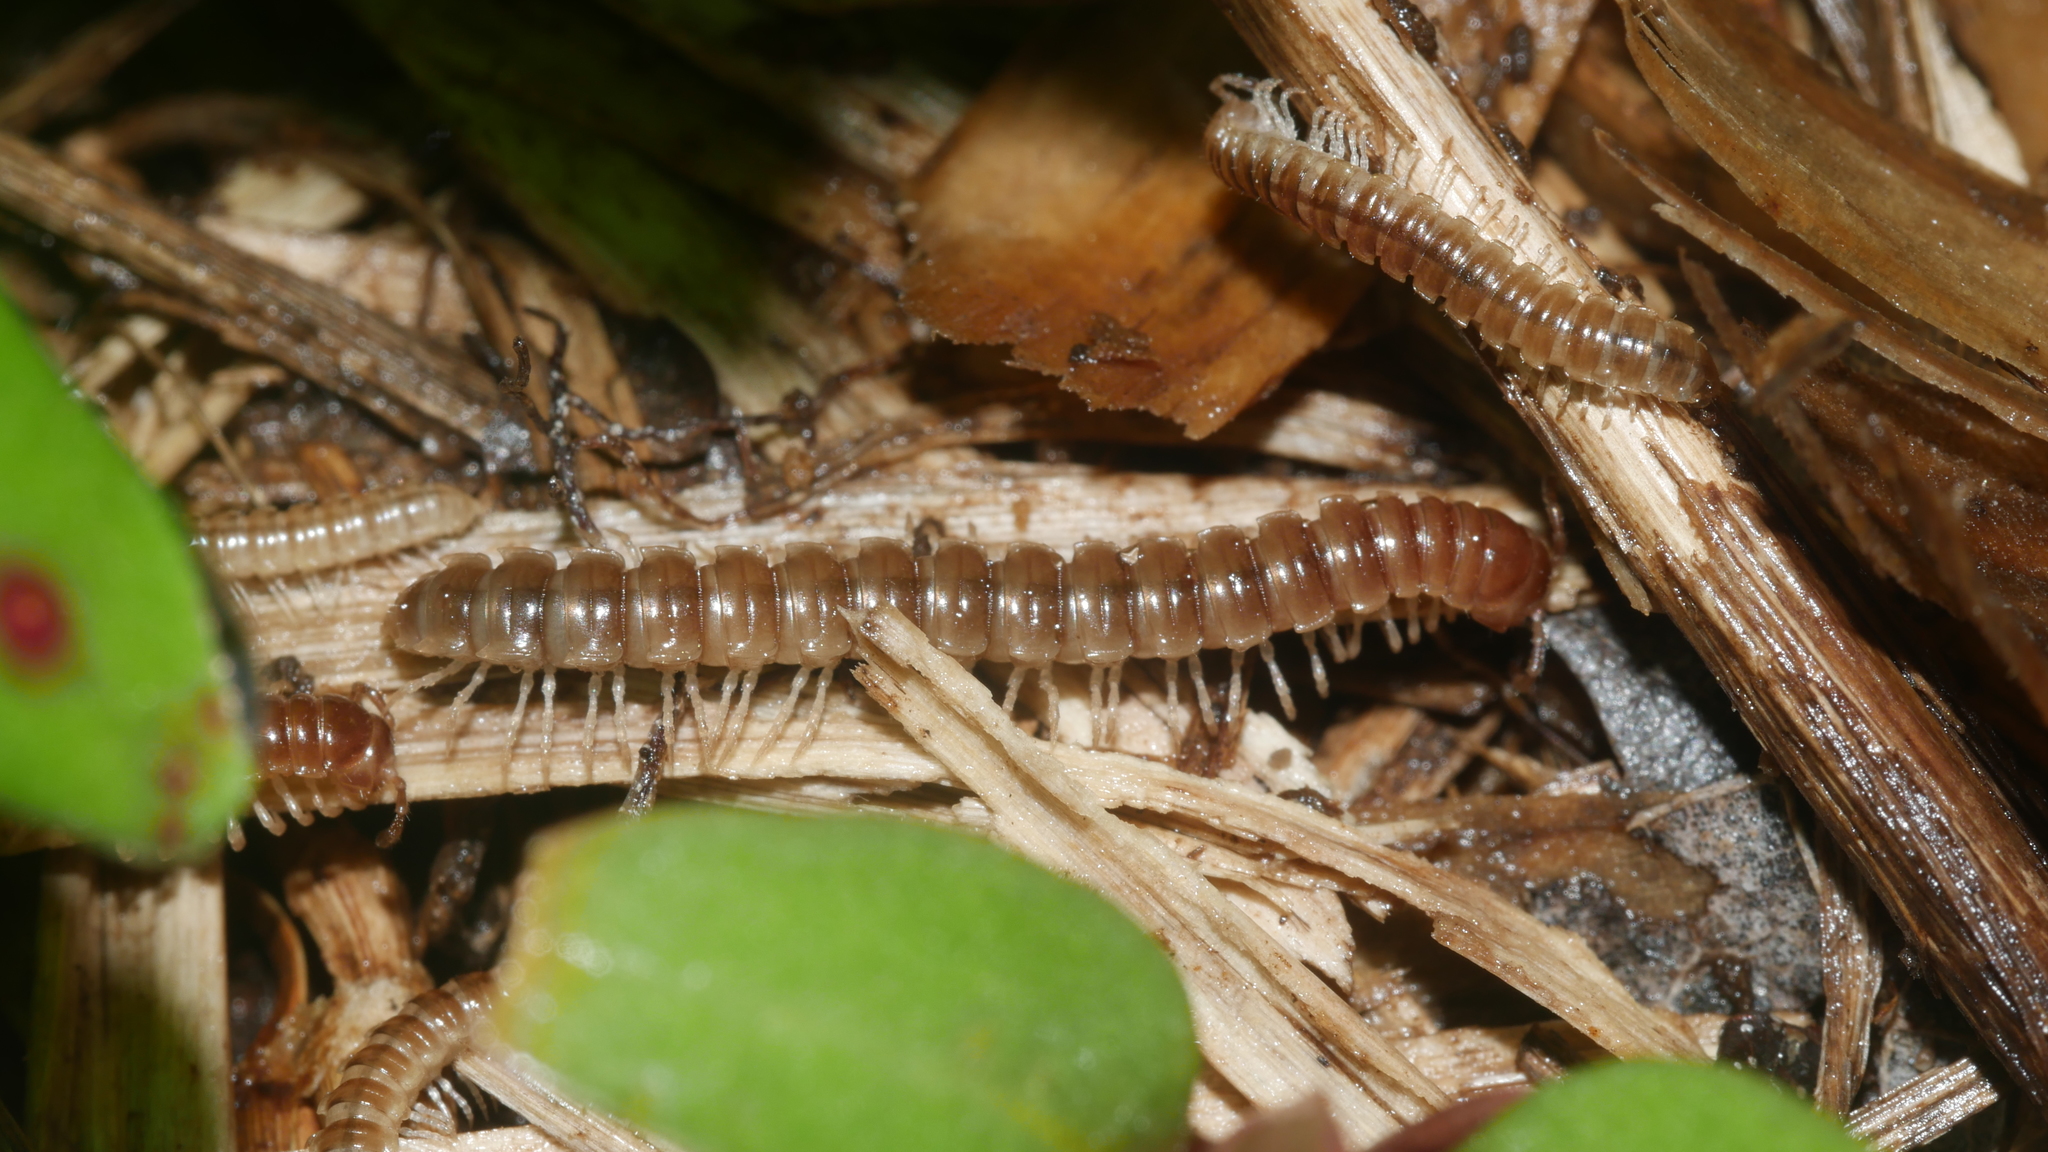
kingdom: Animalia
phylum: Arthropoda
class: Diplopoda
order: Polydesmida
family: Paradoxosomatidae
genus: Oxidus
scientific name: Oxidus gracilis
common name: Greenhouse millipede
